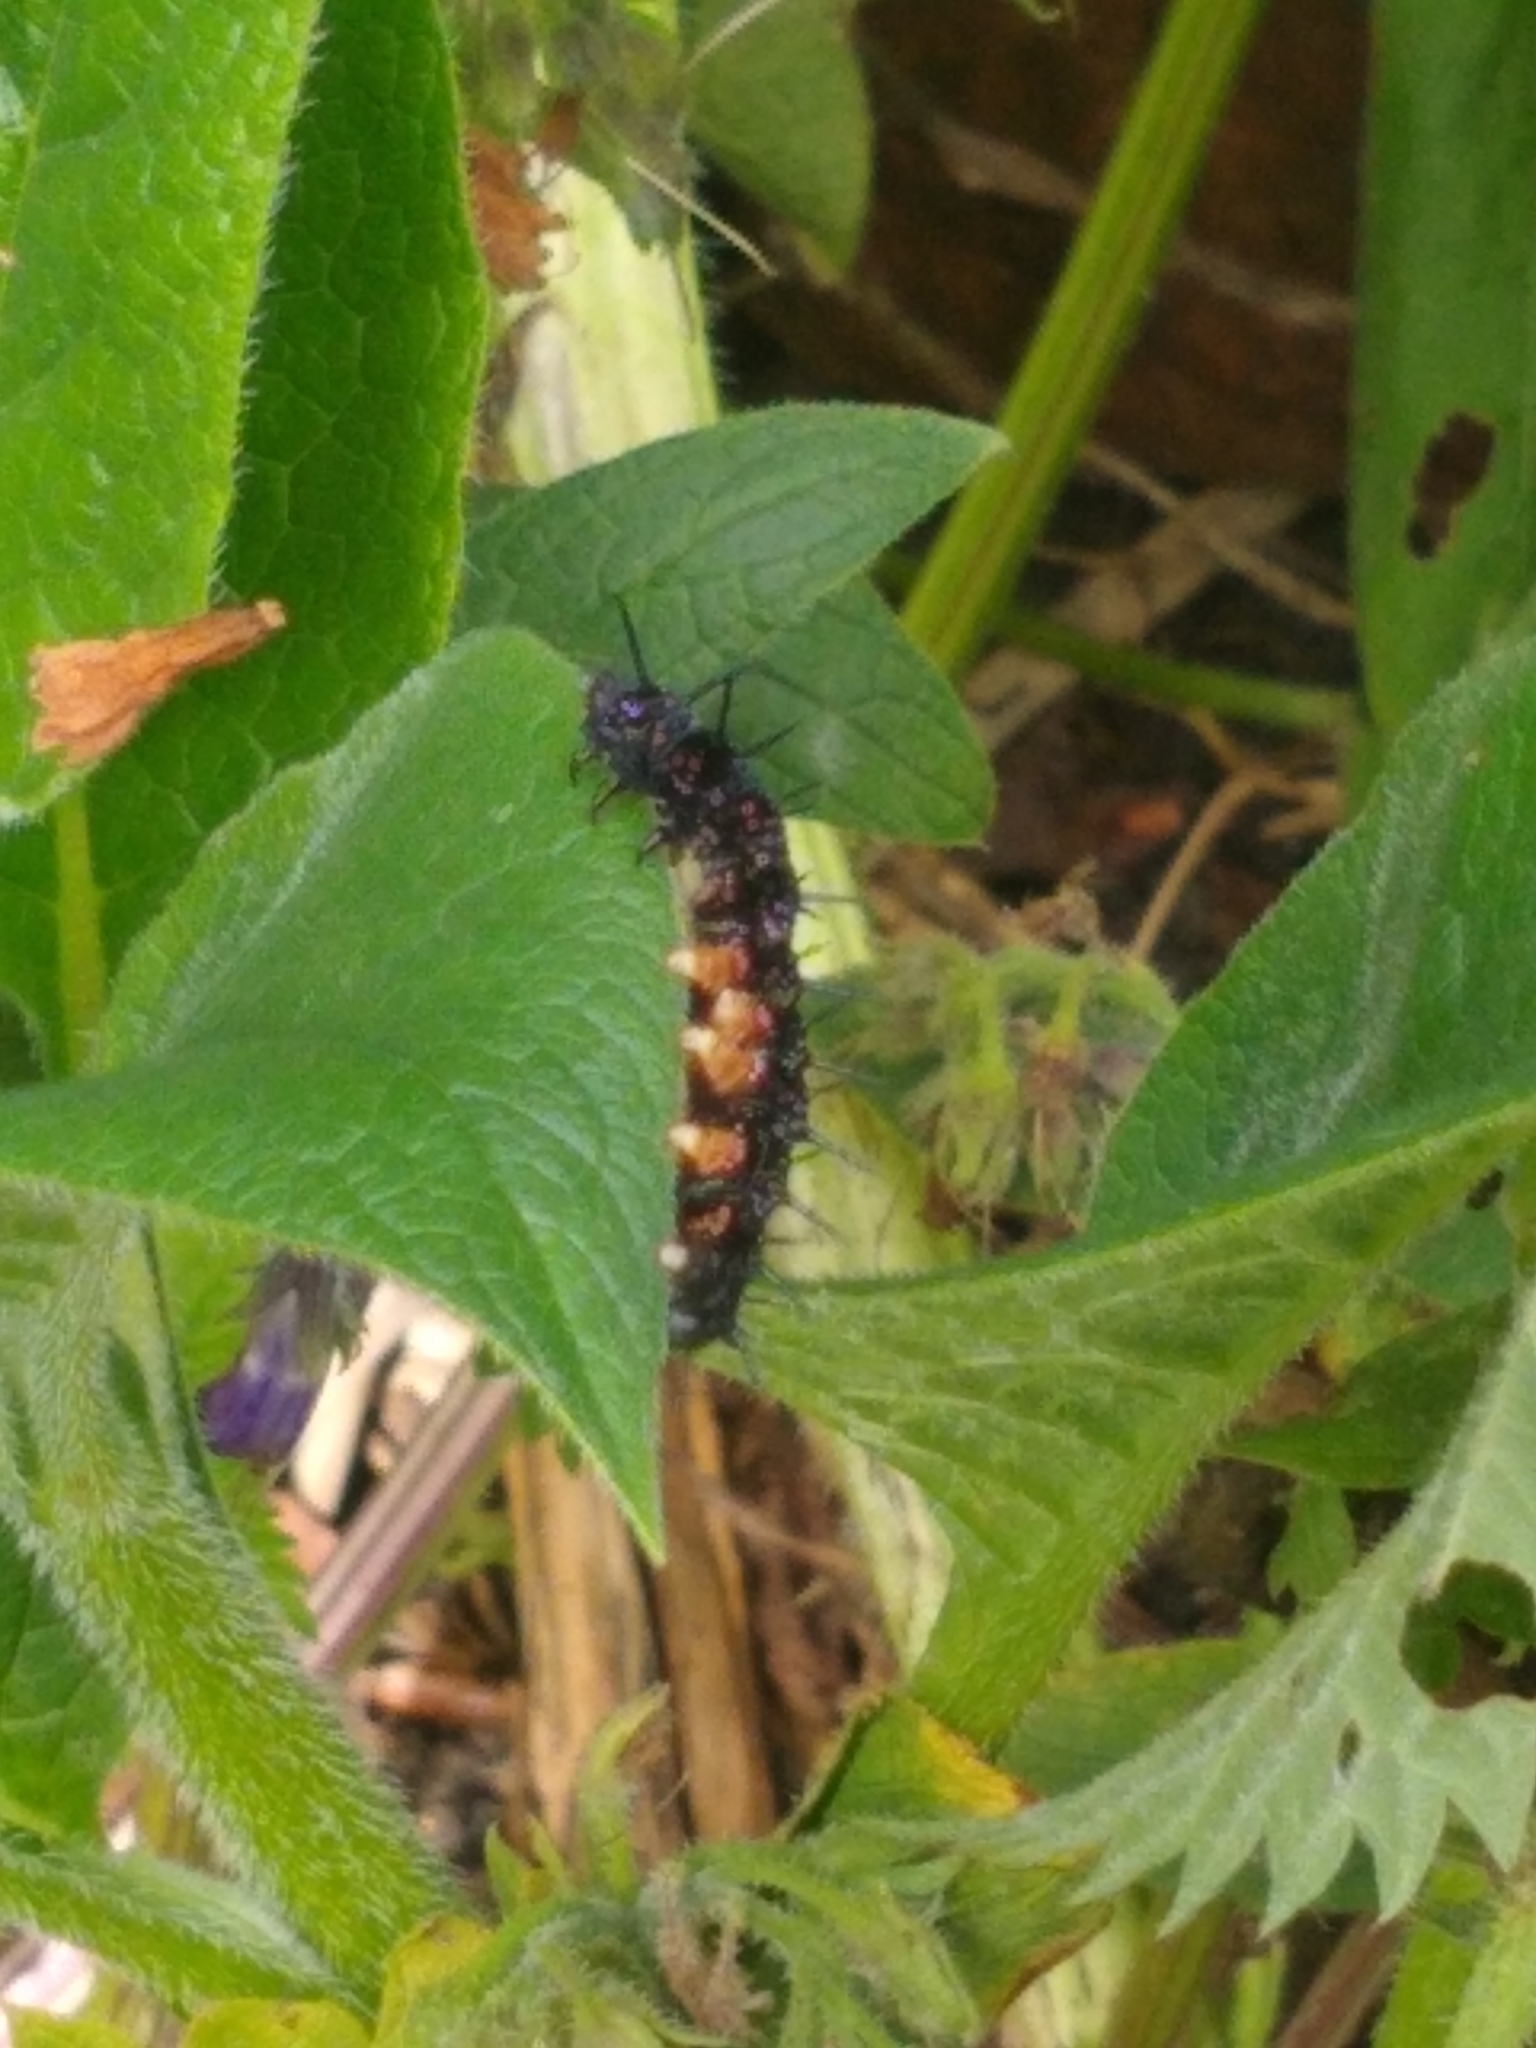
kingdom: Animalia
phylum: Arthropoda
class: Insecta
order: Lepidoptera
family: Nymphalidae
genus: Aglais
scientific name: Aglais io
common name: Peacock
